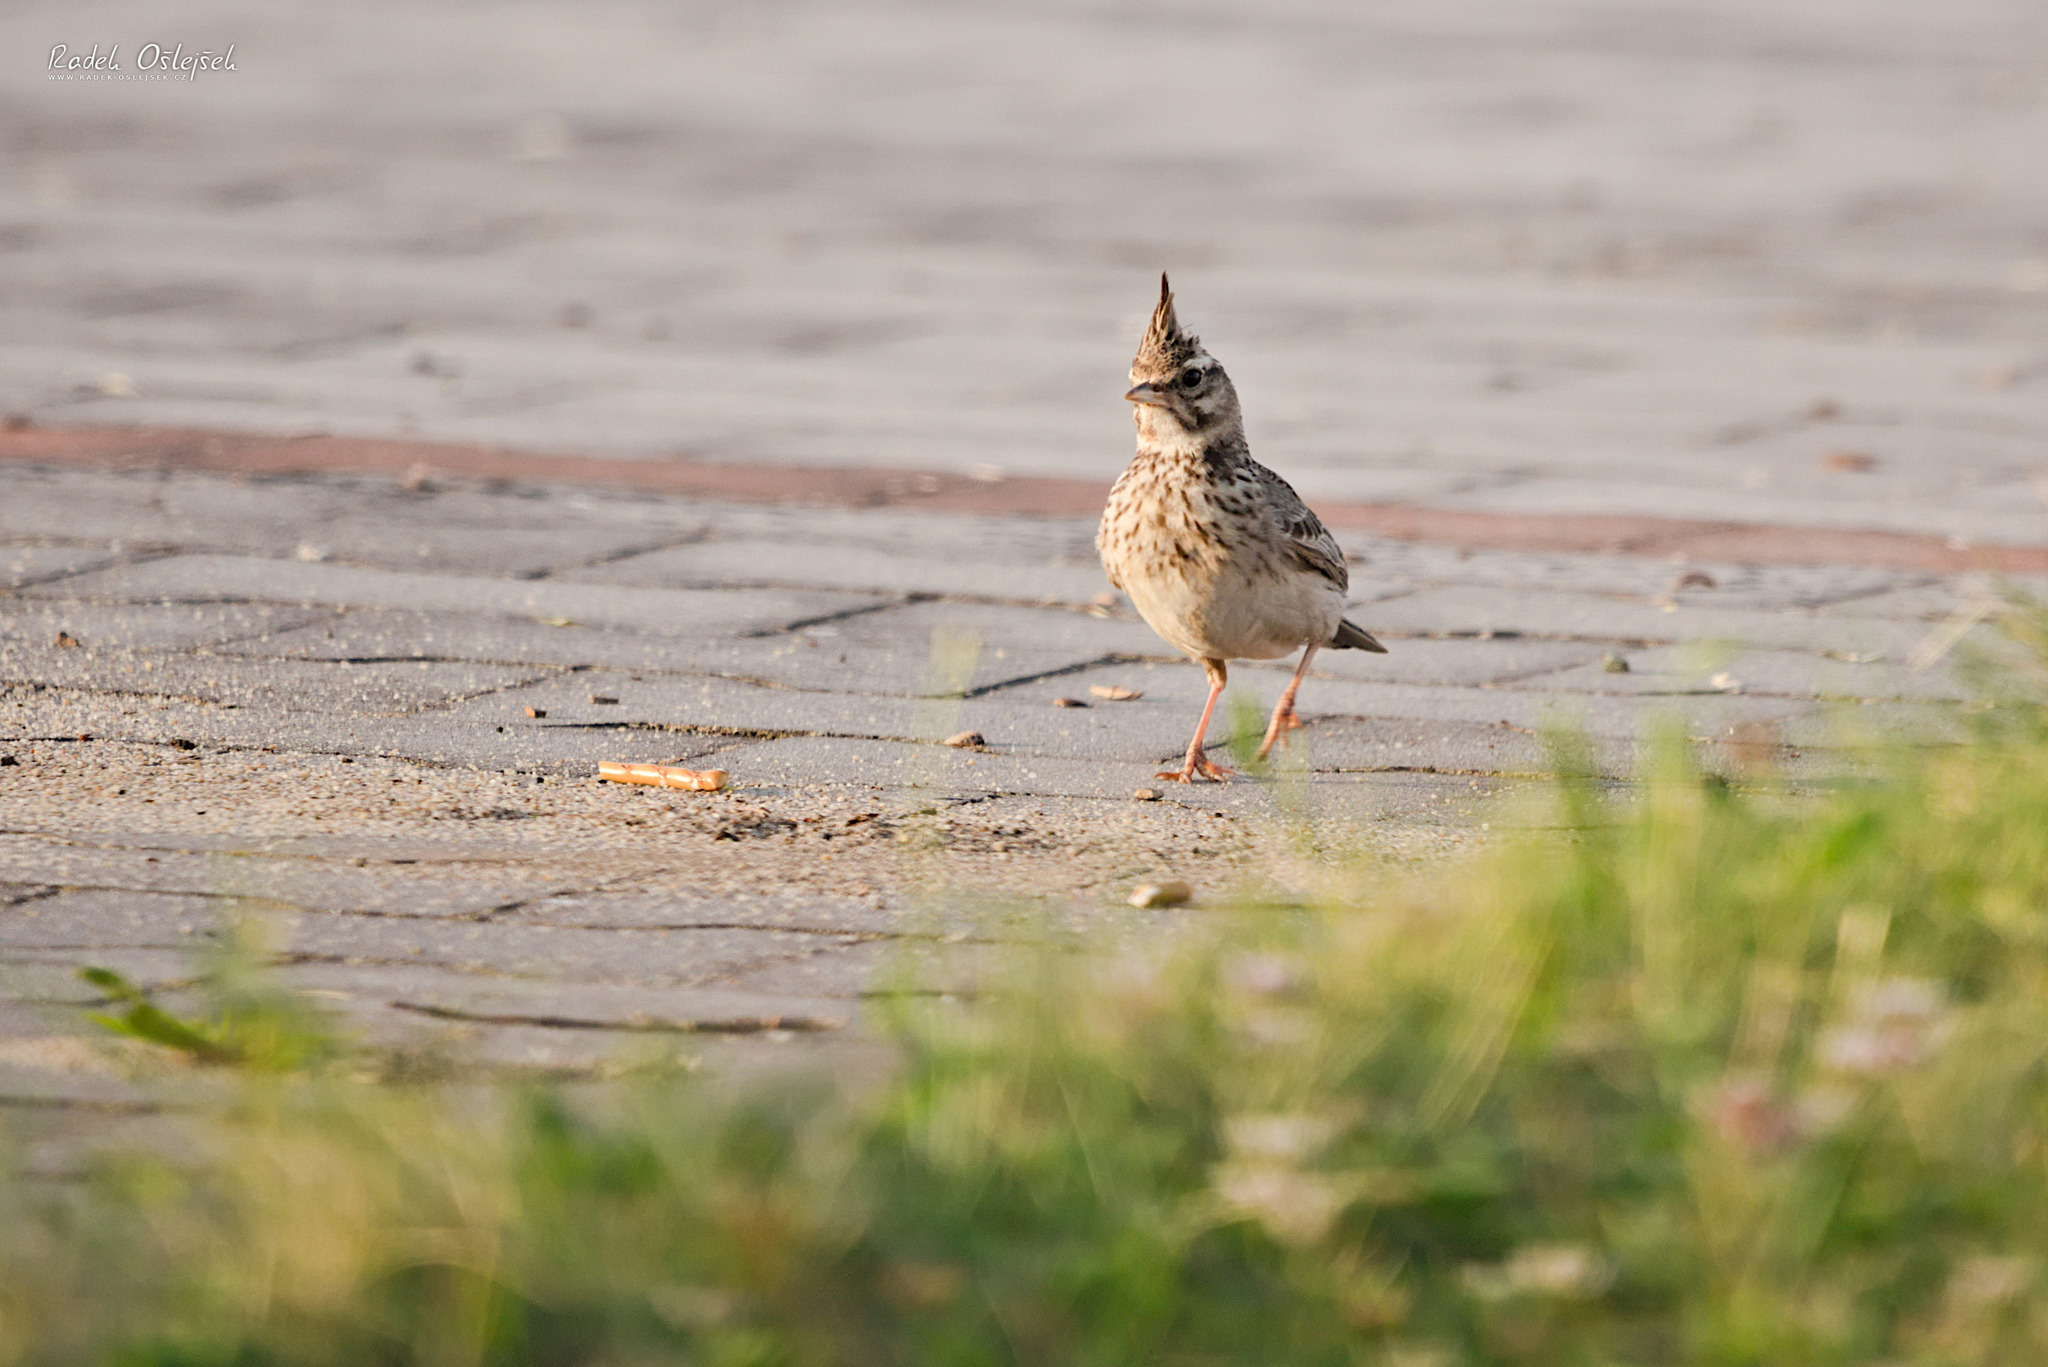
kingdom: Animalia
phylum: Chordata
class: Aves
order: Passeriformes
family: Alaudidae
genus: Galerida
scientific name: Galerida cristata
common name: Crested lark
